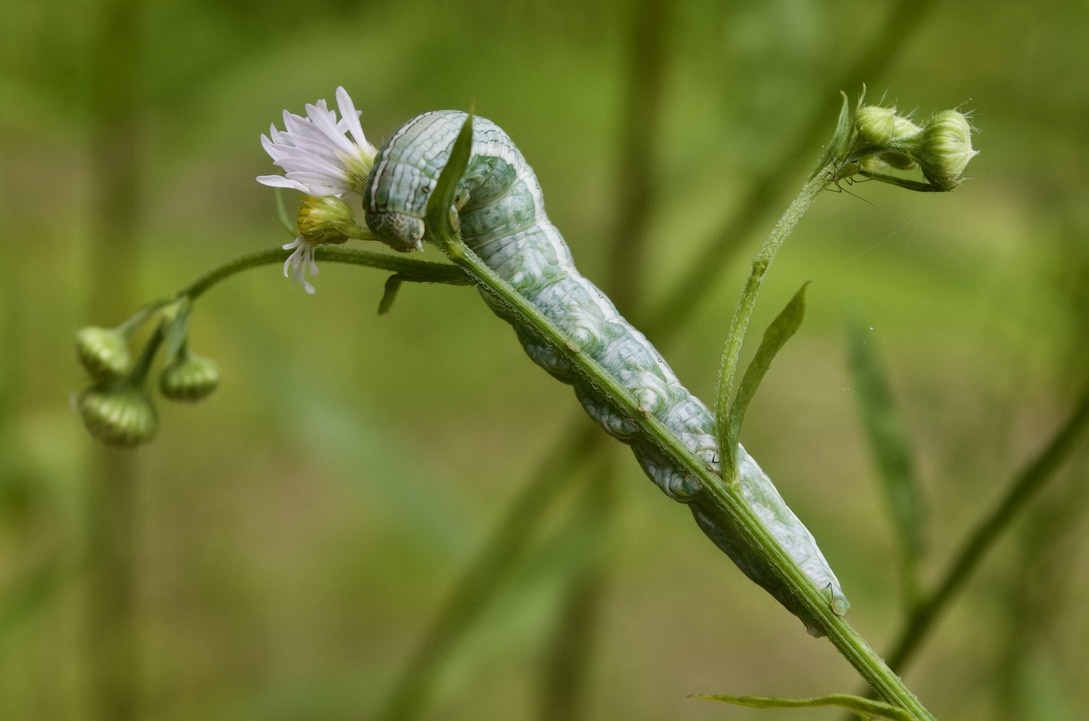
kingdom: Animalia
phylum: Arthropoda
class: Insecta
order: Lepidoptera
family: Noctuidae
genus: Cucullia
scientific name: Cucullia florea
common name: Gray hooded owlet
